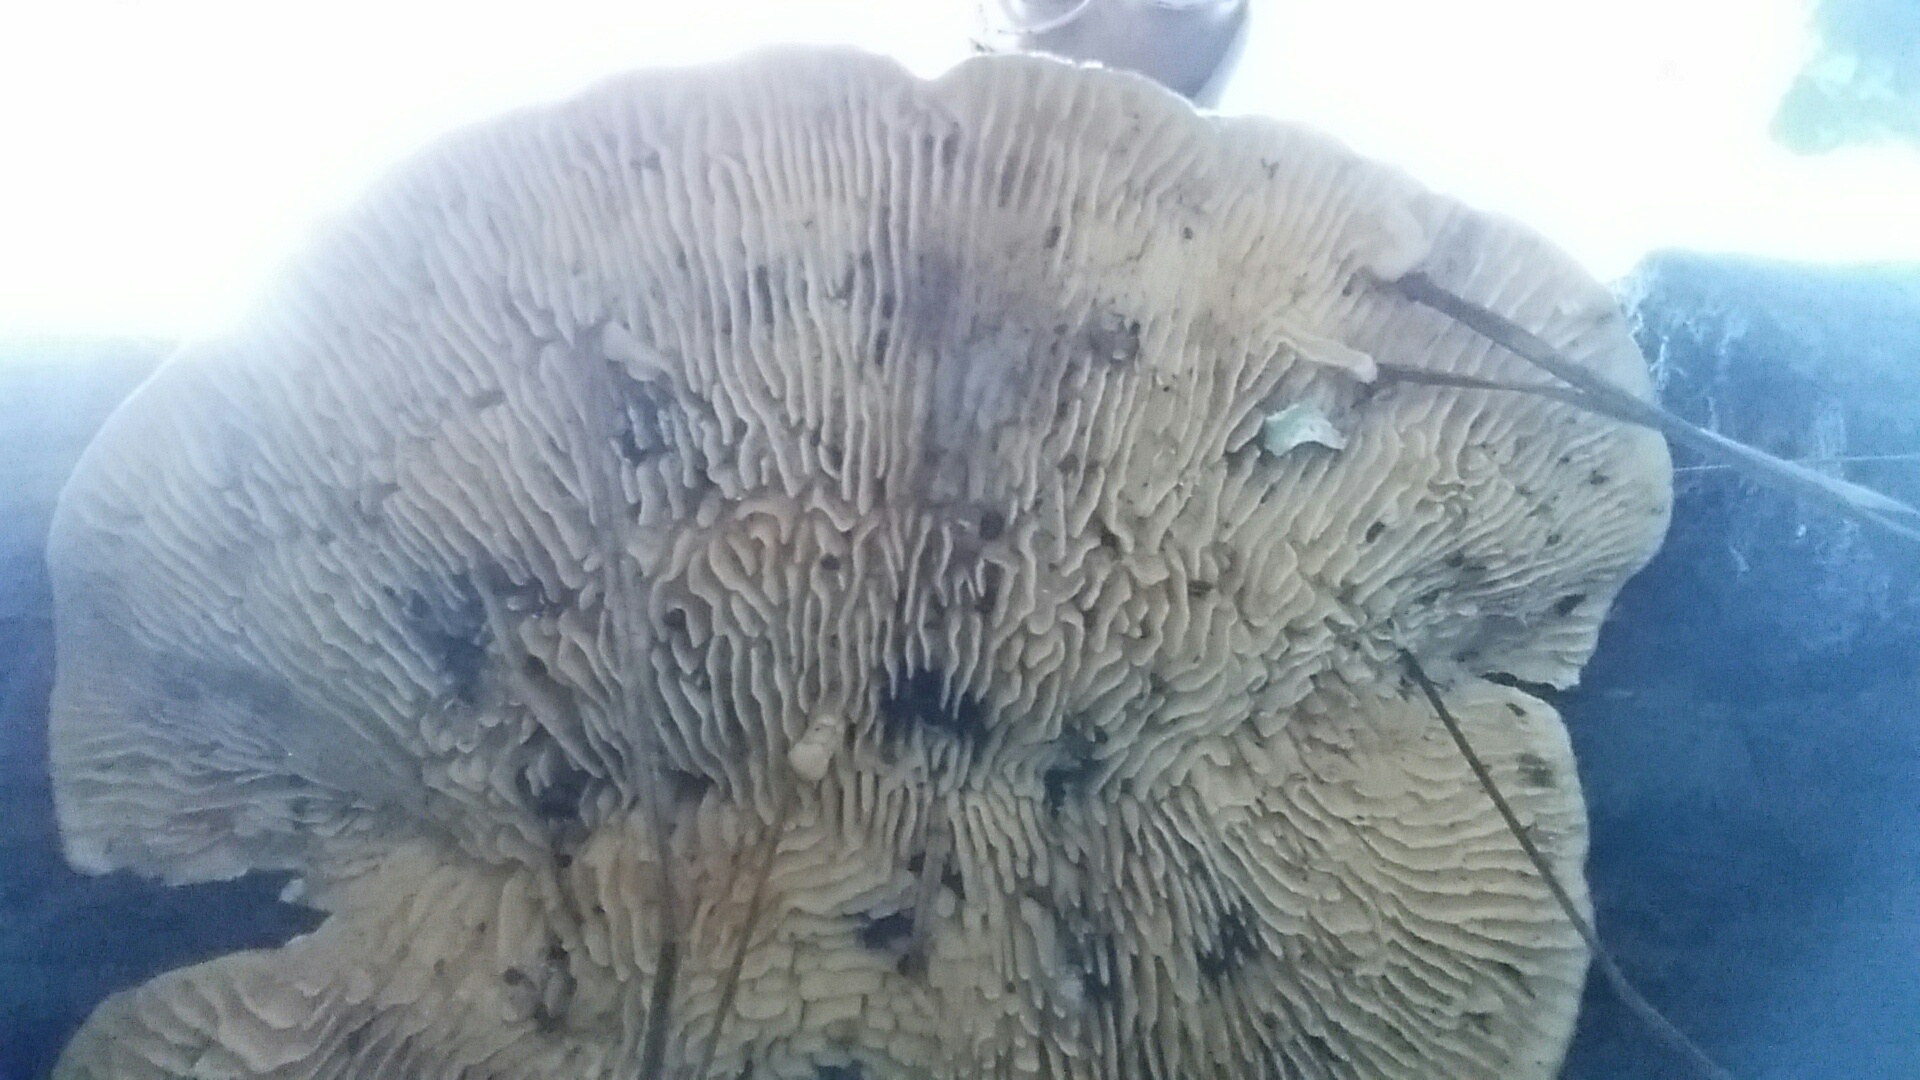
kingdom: Fungi
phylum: Basidiomycota
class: Agaricomycetes
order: Polyporales
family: Polyporaceae
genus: Lenzites
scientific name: Lenzites betulinus
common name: Birch mazegill
